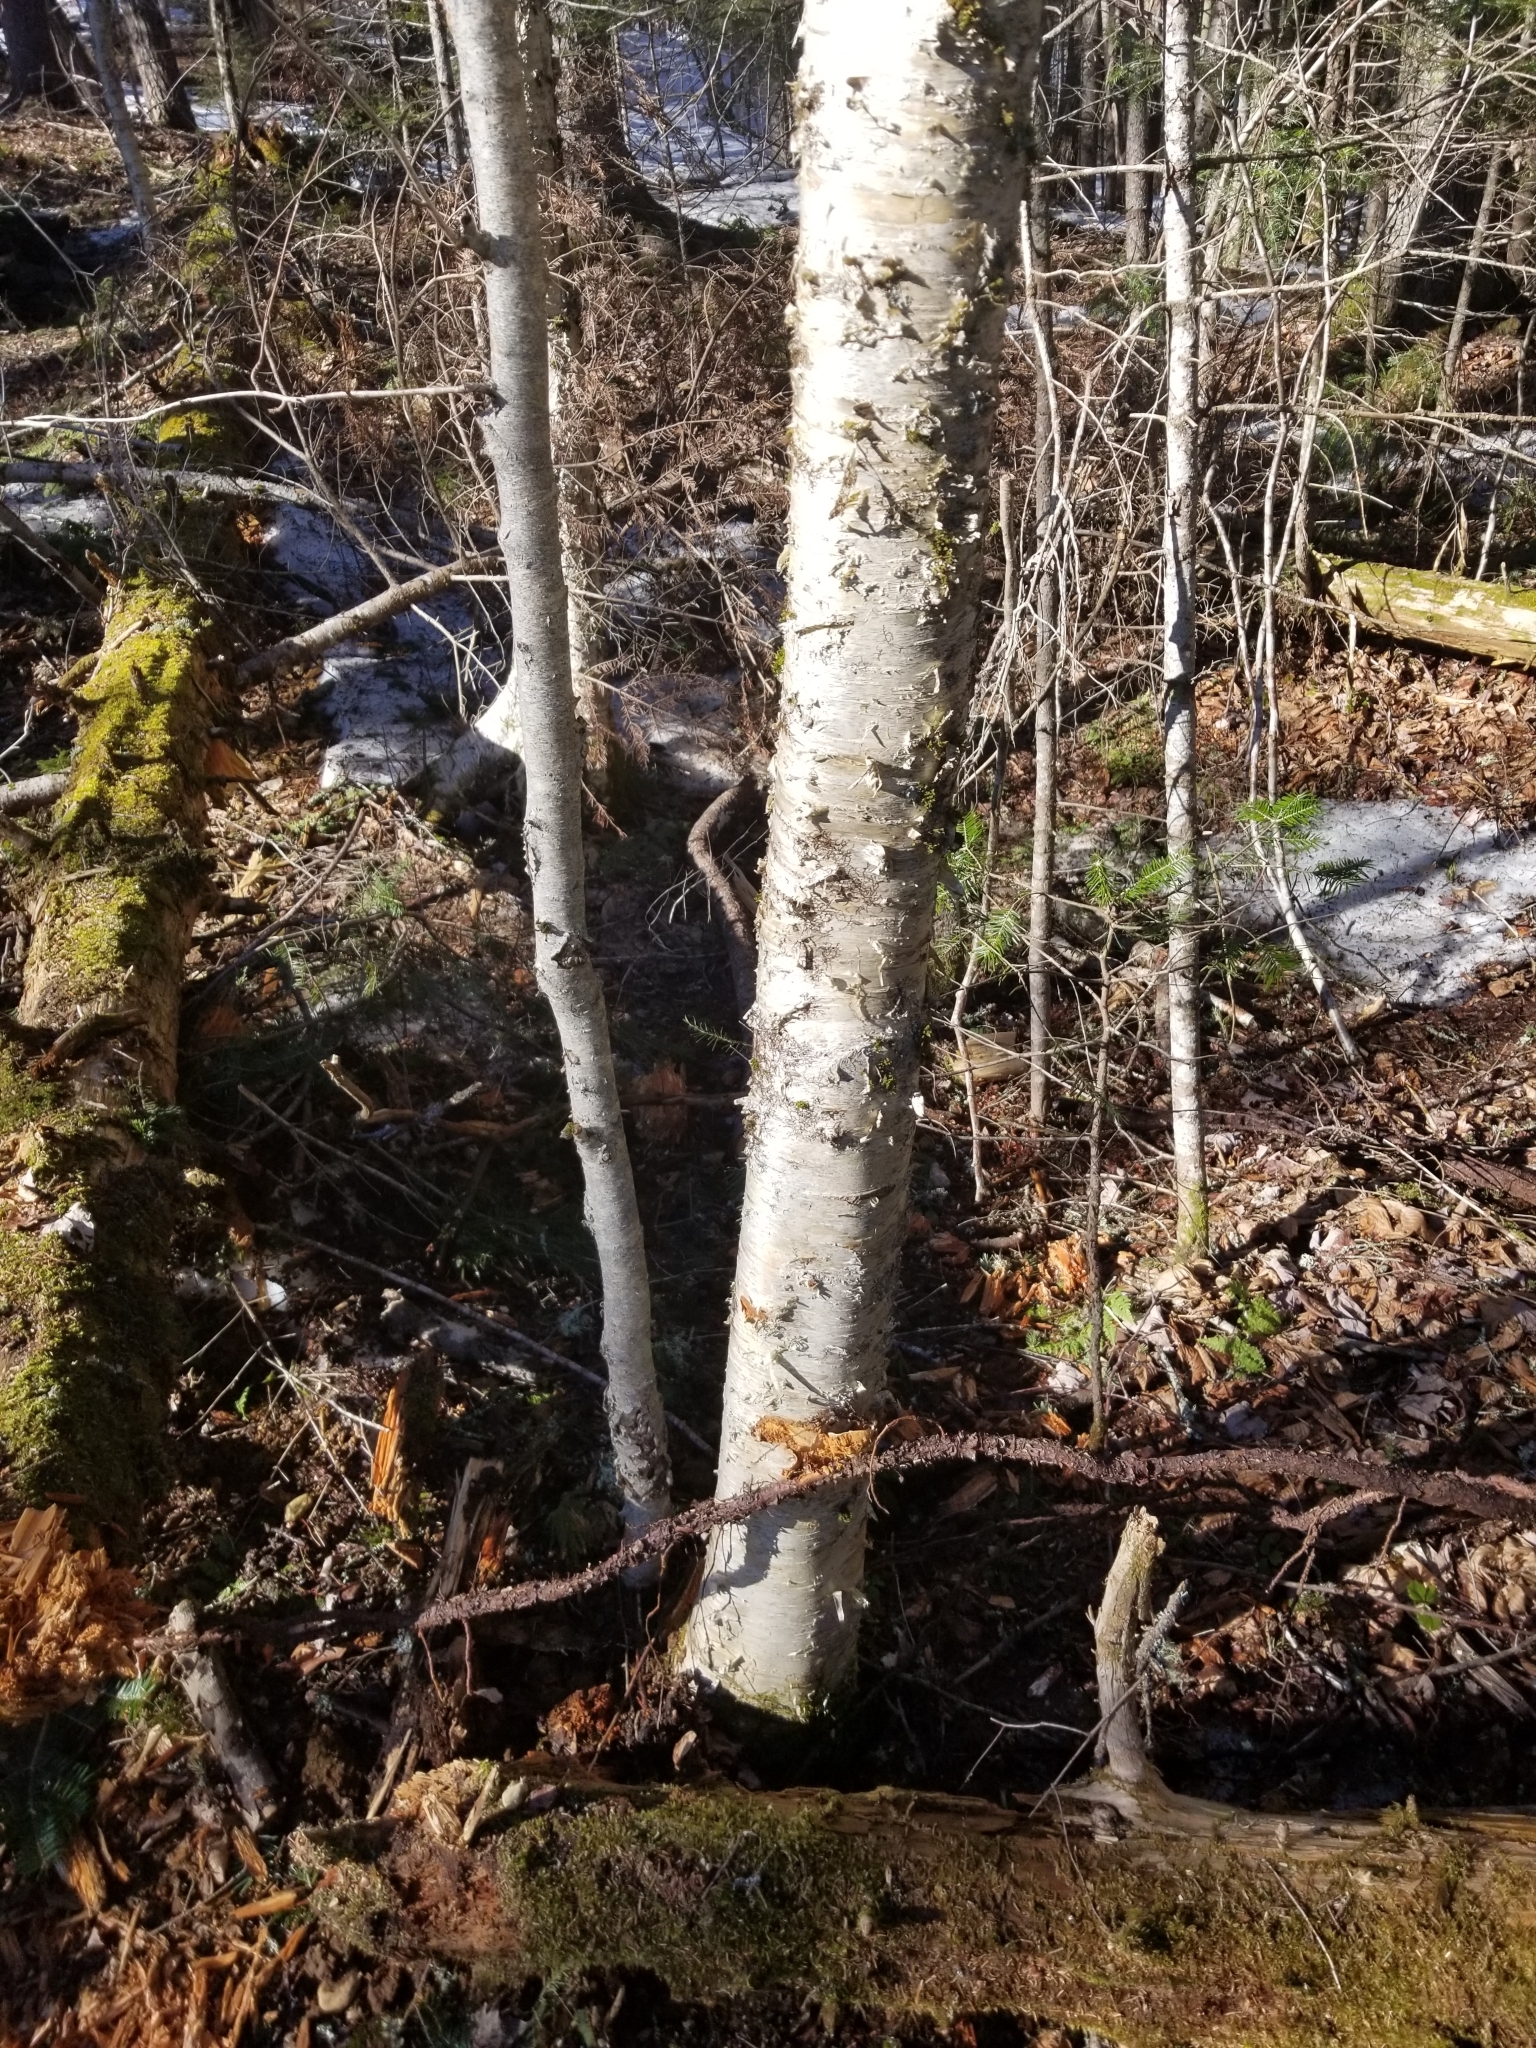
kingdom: Plantae
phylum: Tracheophyta
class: Magnoliopsida
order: Fagales
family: Betulaceae
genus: Betula
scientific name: Betula alleghaniensis
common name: Yellow birch
